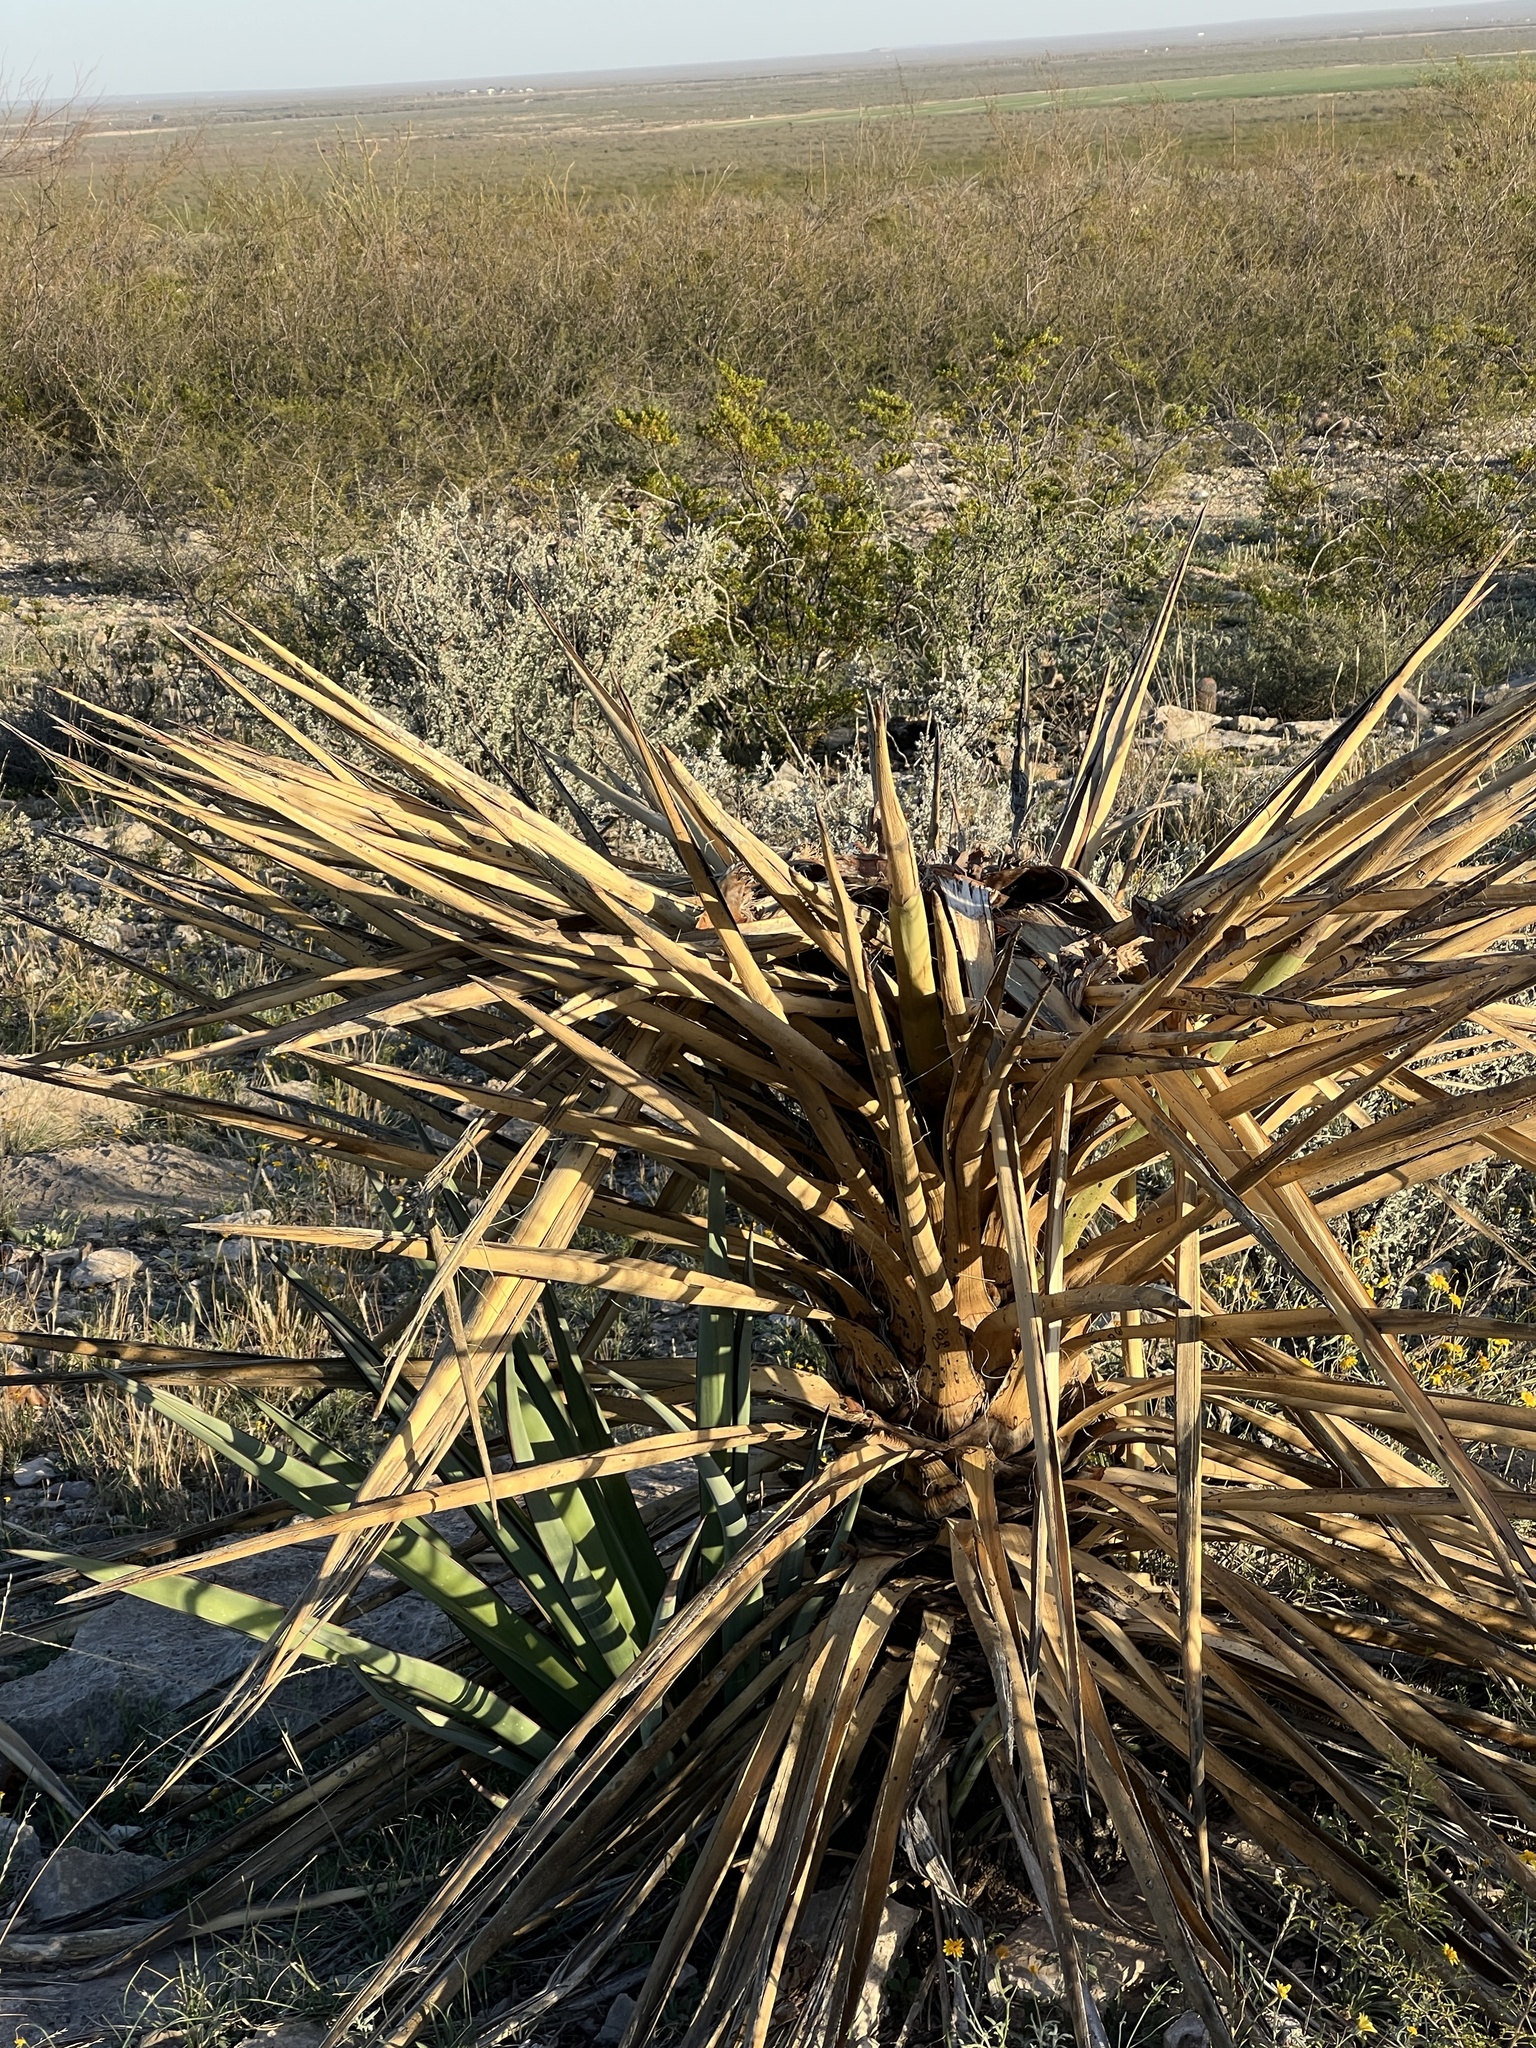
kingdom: Plantae
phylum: Tracheophyta
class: Liliopsida
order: Asparagales
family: Asparagaceae
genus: Yucca
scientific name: Yucca treculiana
